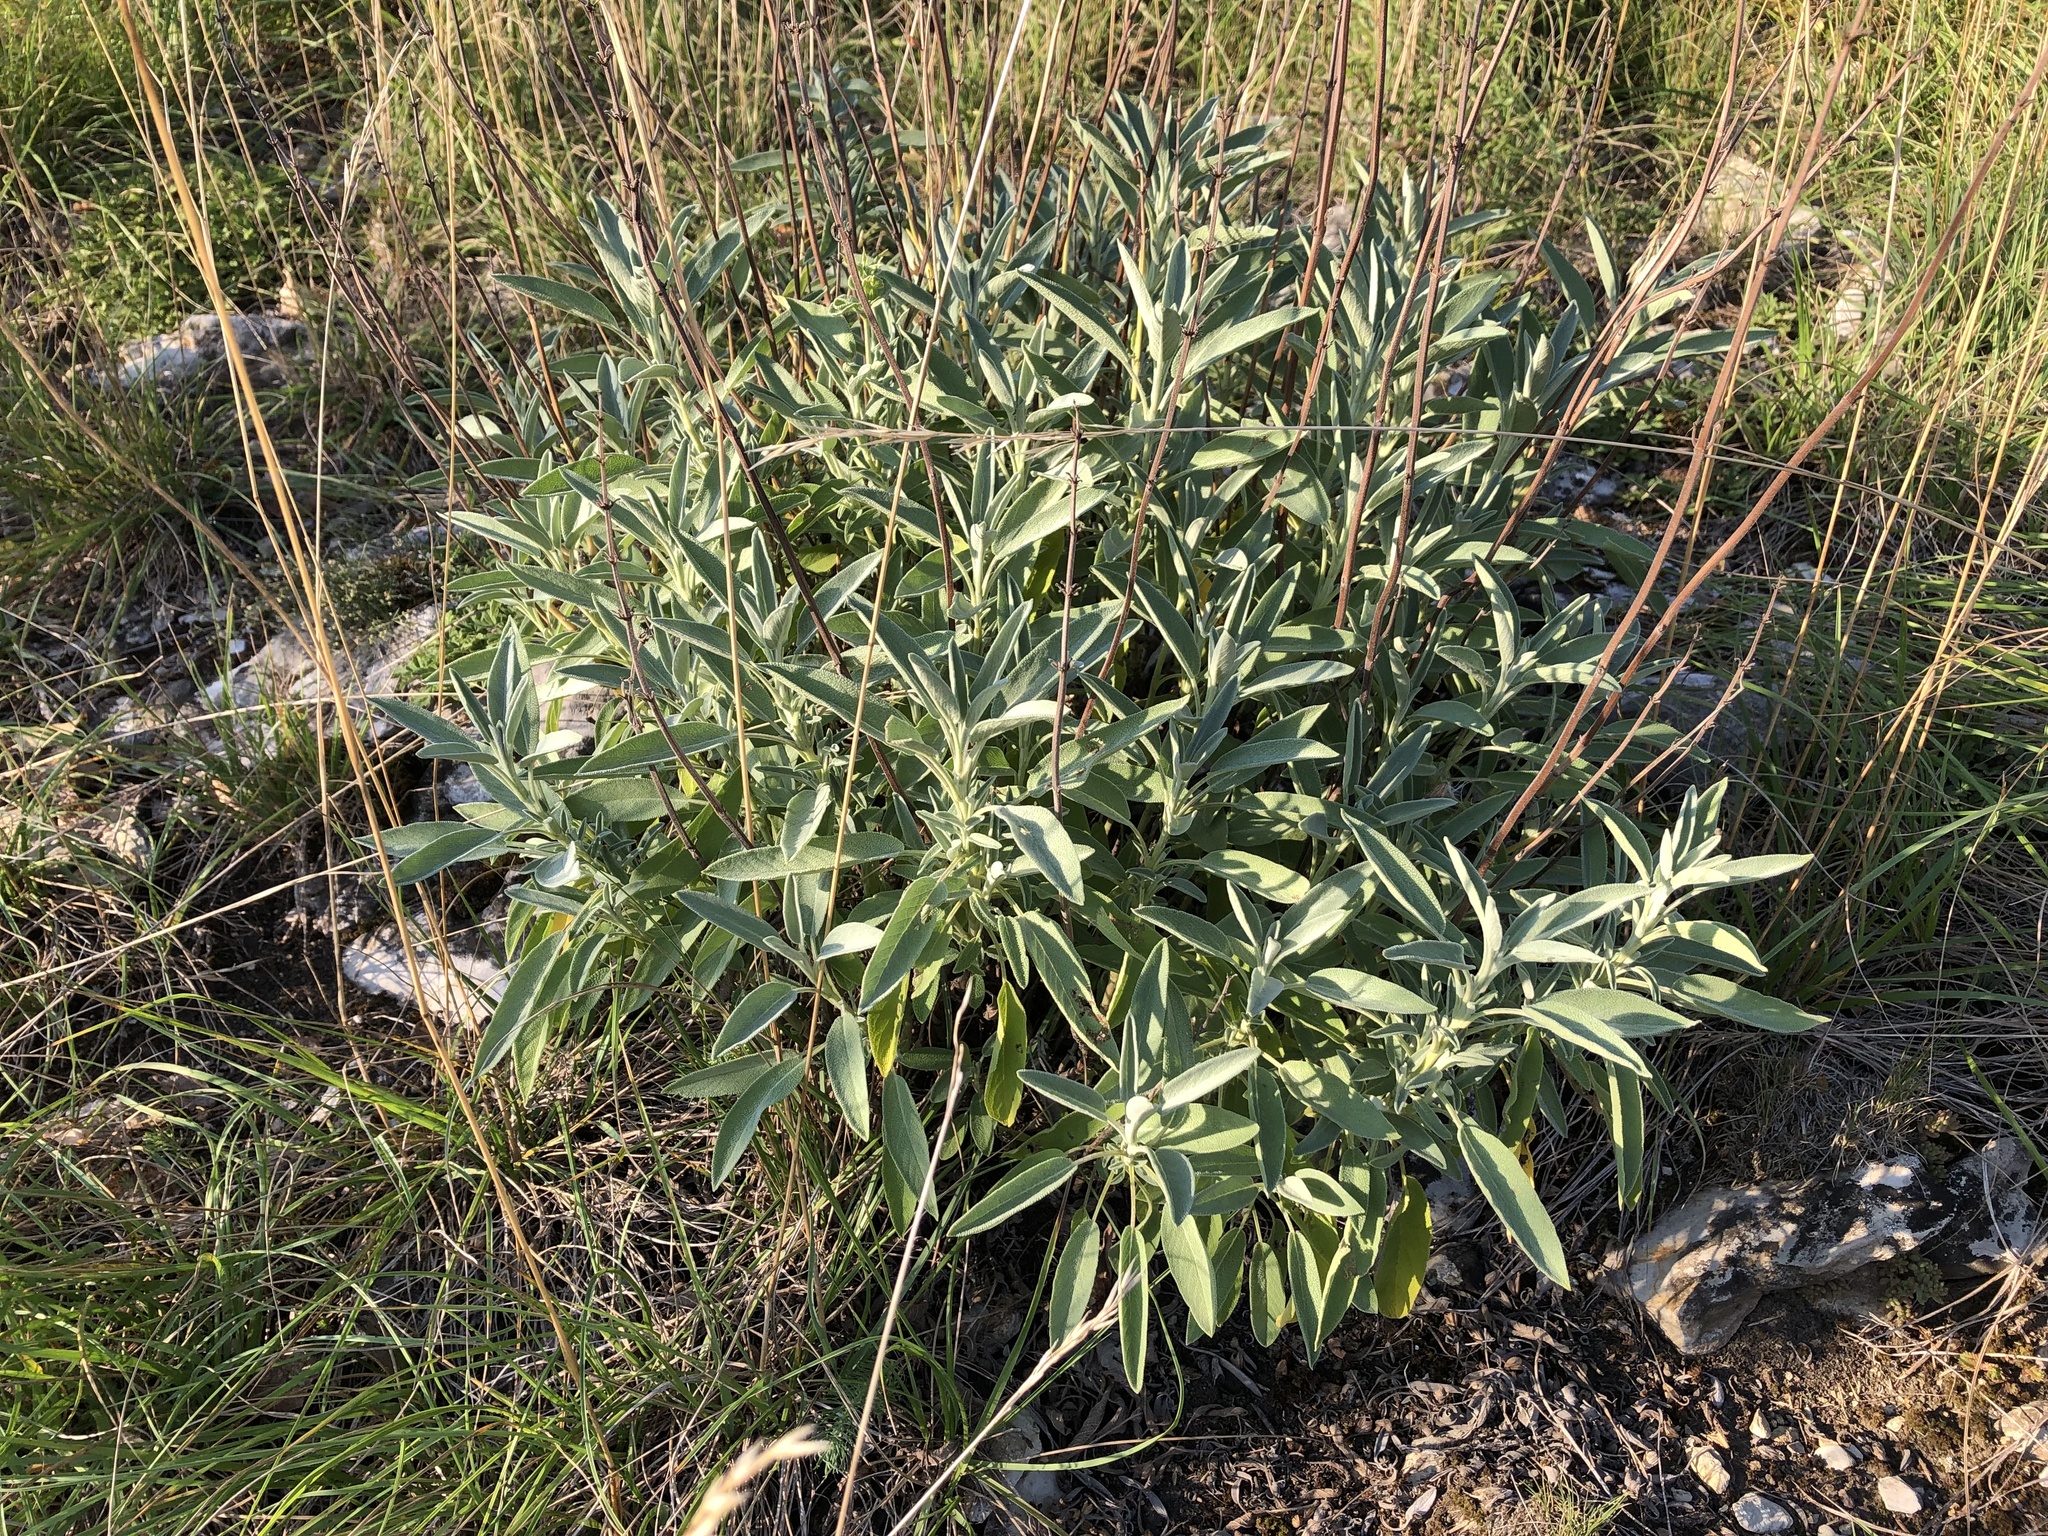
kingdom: Plantae
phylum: Tracheophyta
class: Magnoliopsida
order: Lamiales
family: Lamiaceae
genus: Salvia
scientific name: Salvia officinalis
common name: Sage
